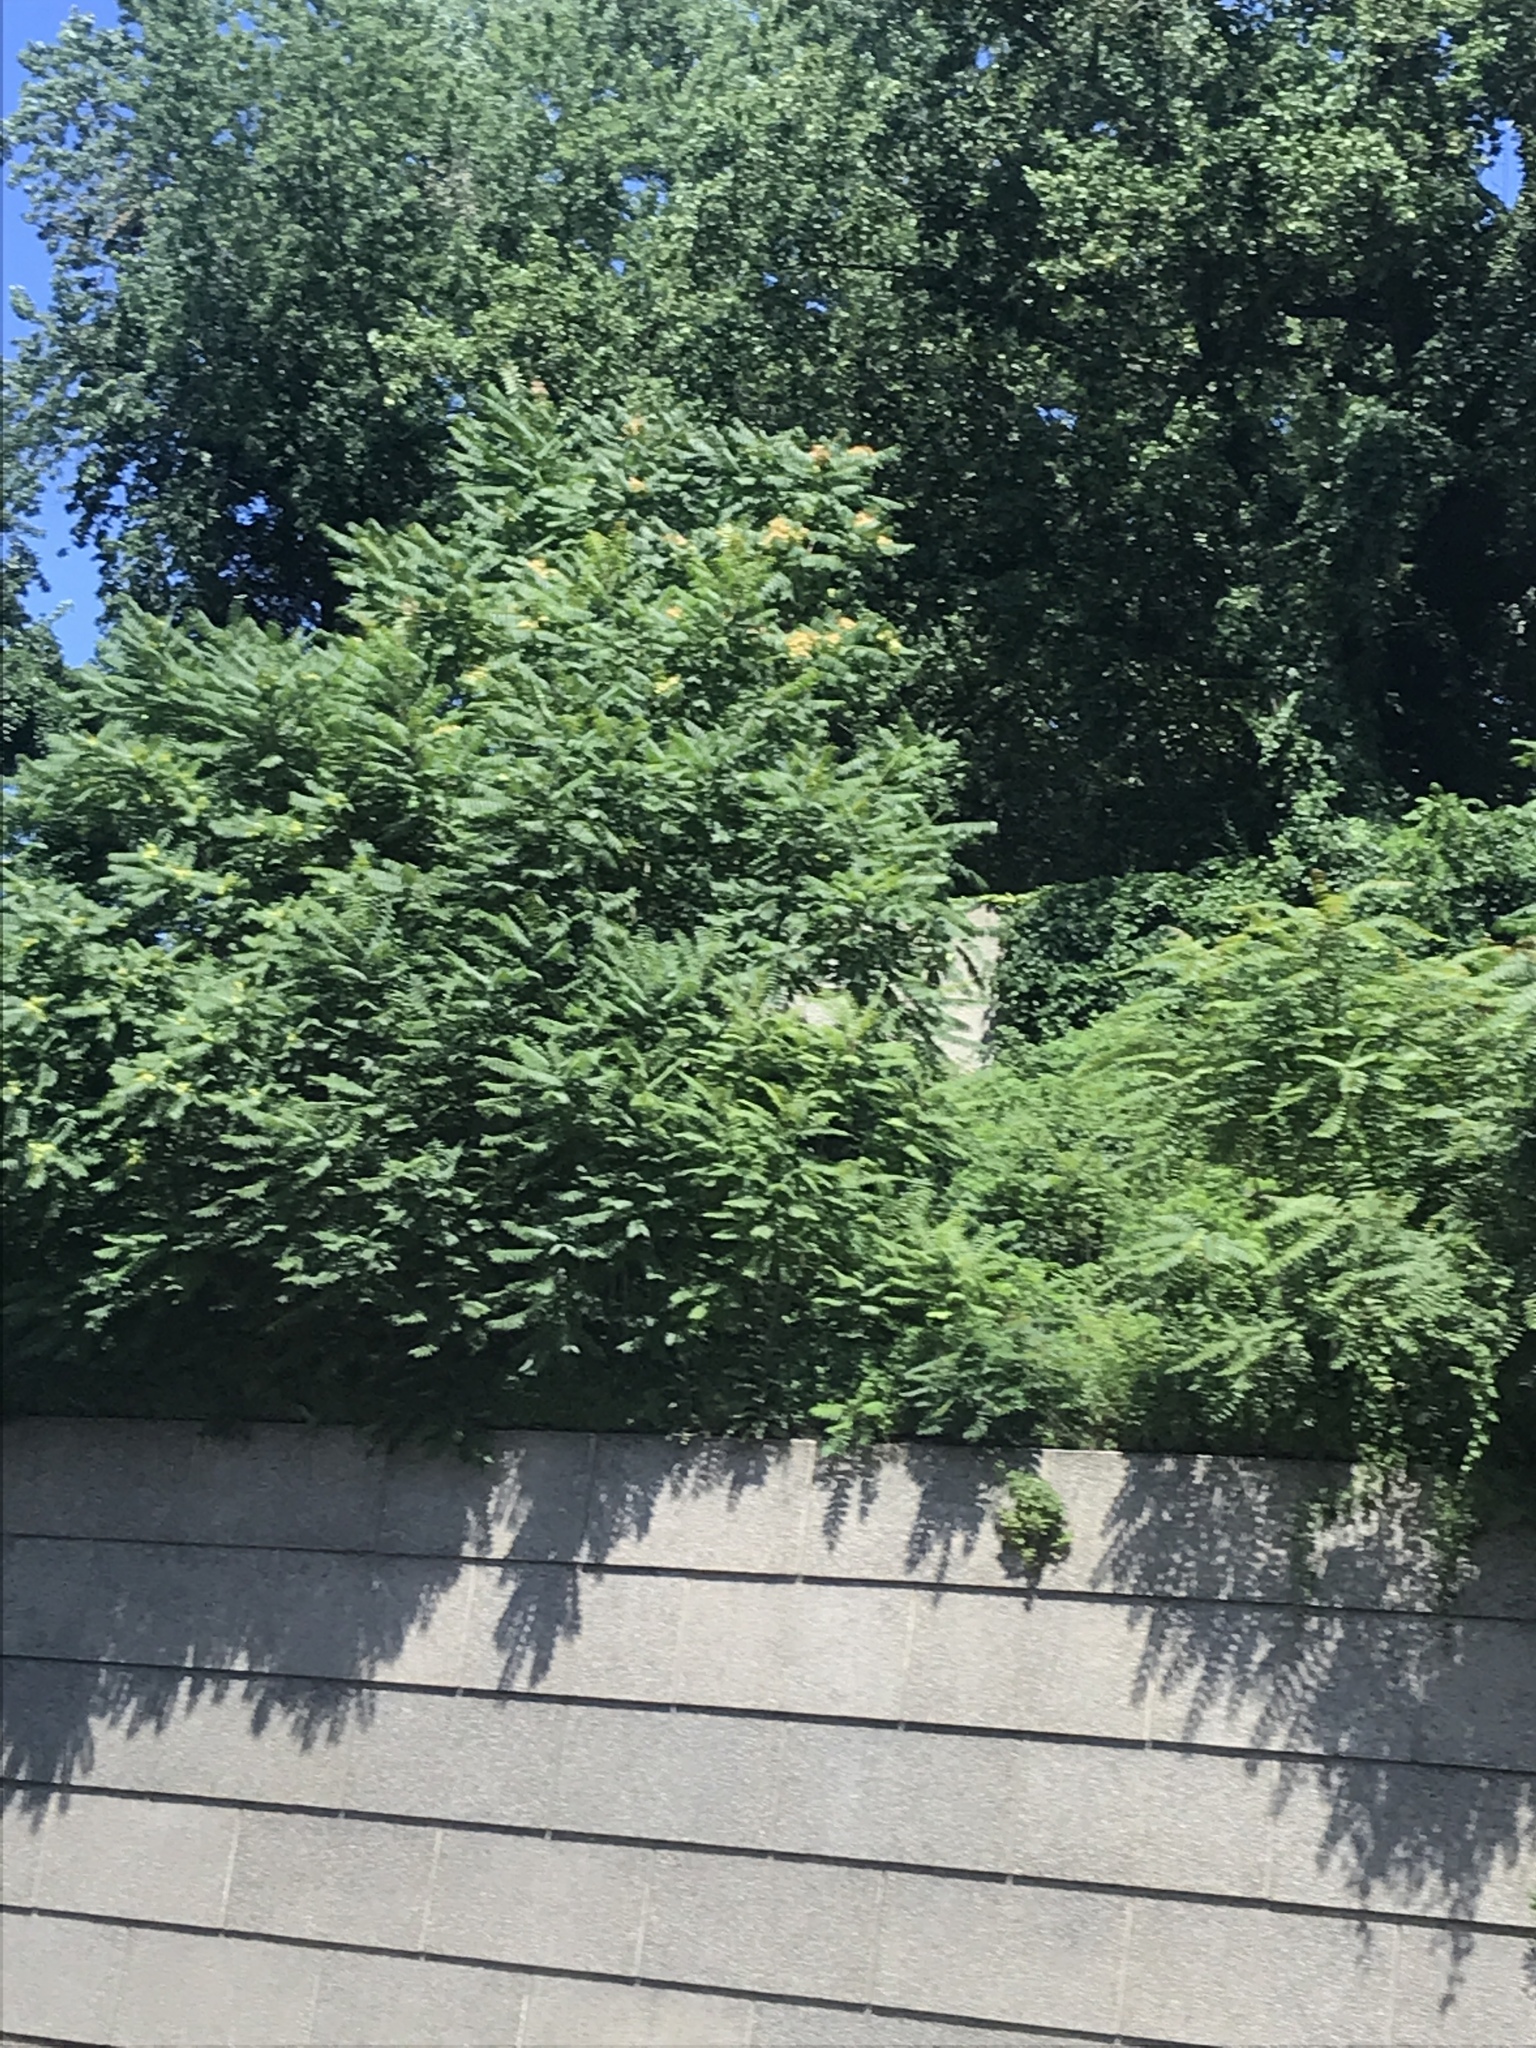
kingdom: Plantae
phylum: Tracheophyta
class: Magnoliopsida
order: Sapindales
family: Simaroubaceae
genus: Ailanthus
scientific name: Ailanthus altissima
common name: Tree-of-heaven
